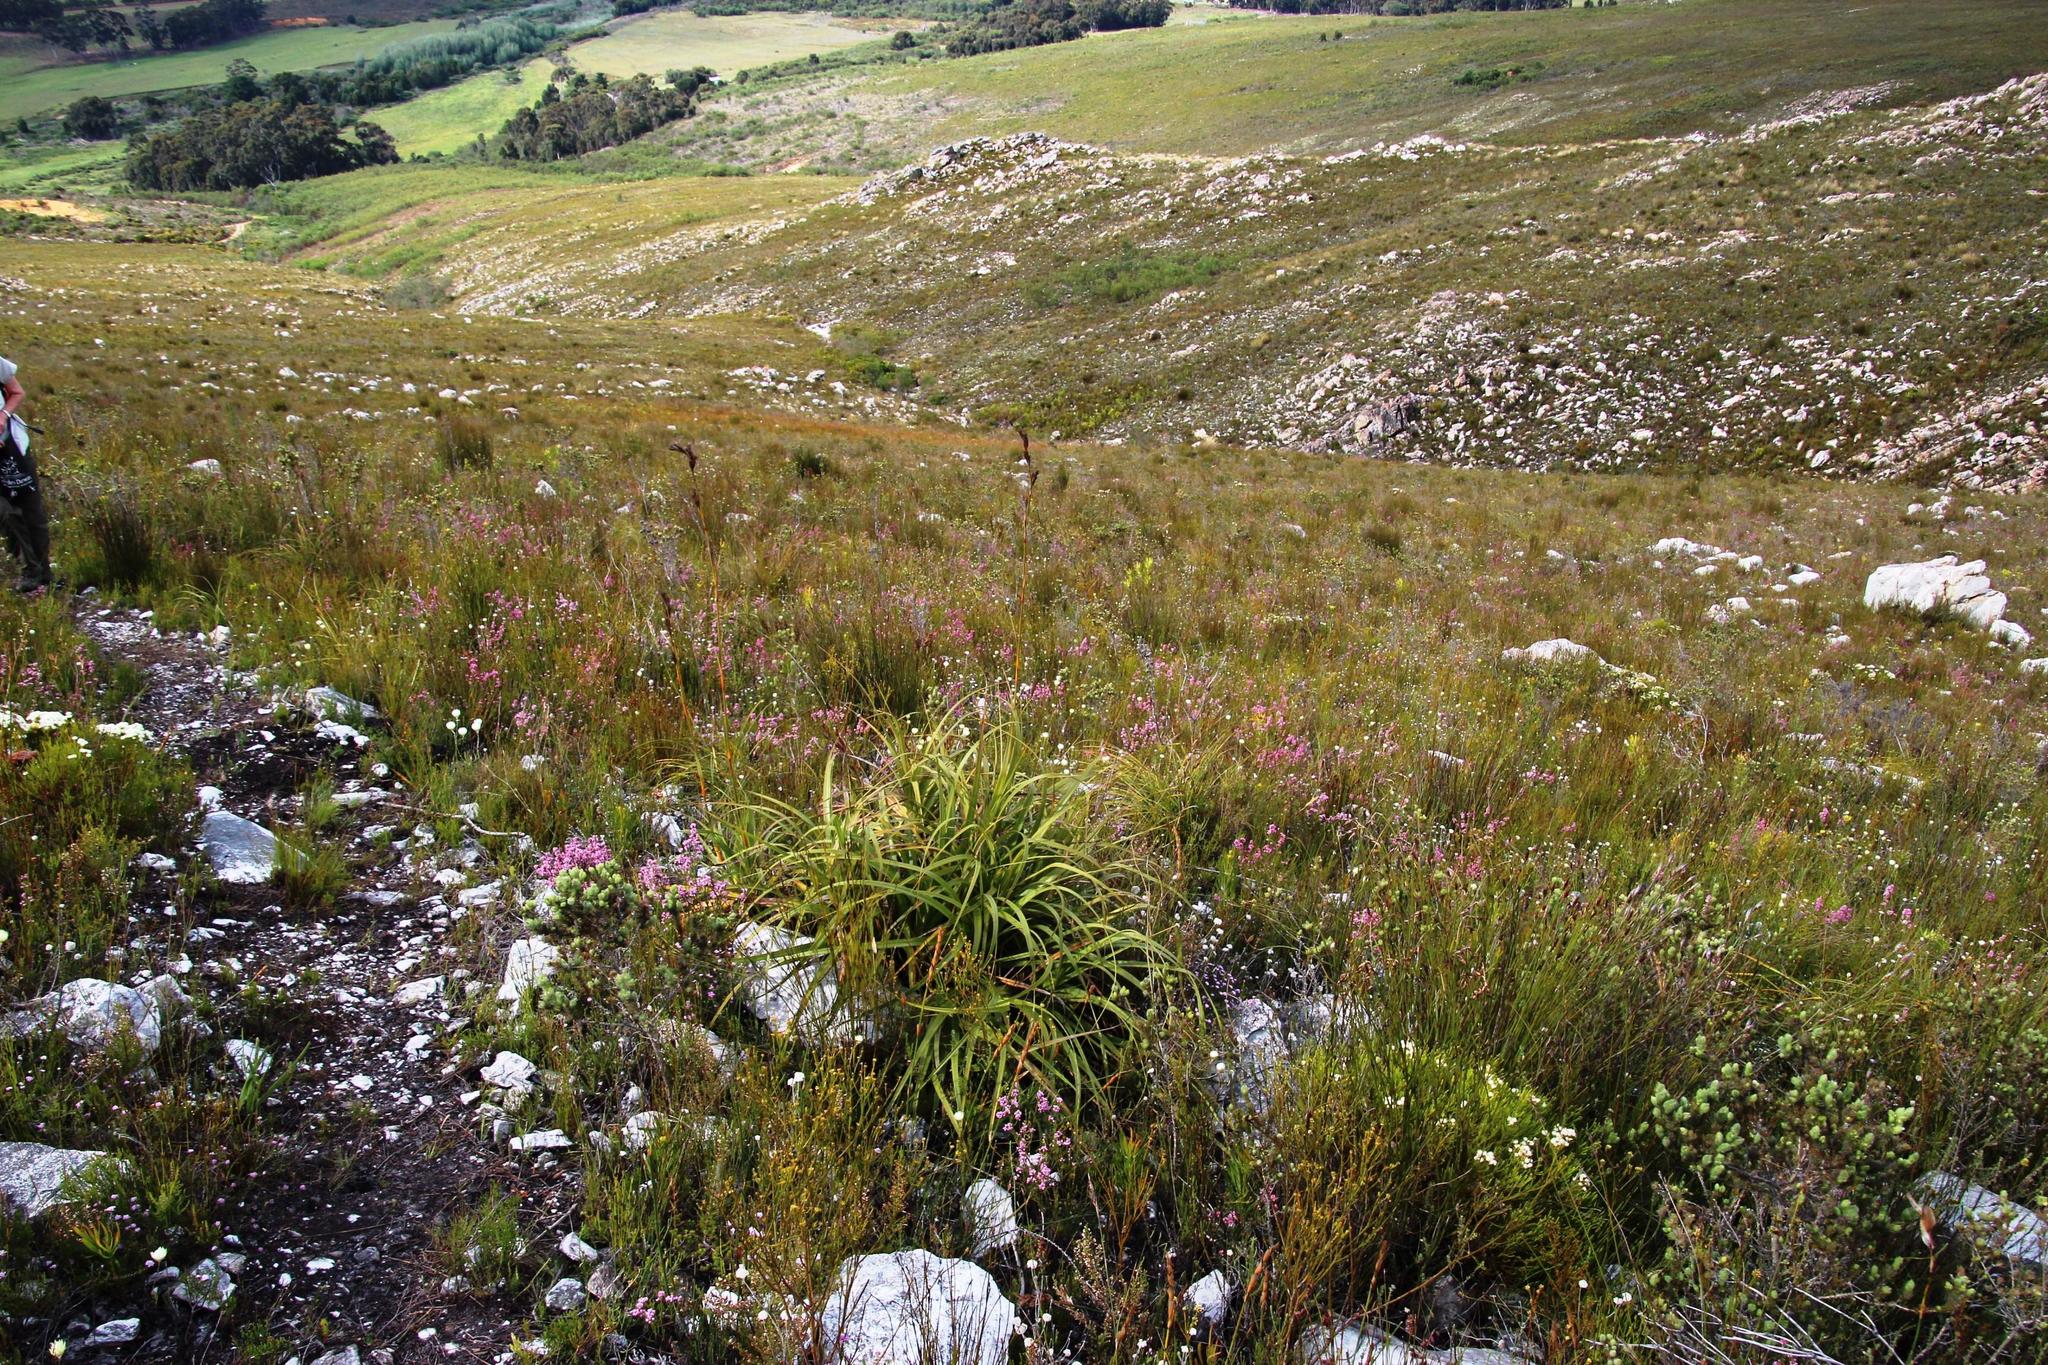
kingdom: Plantae
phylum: Tracheophyta
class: Liliopsida
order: Poales
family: Cyperaceae
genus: Tetraria
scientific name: Tetraria thermalis
